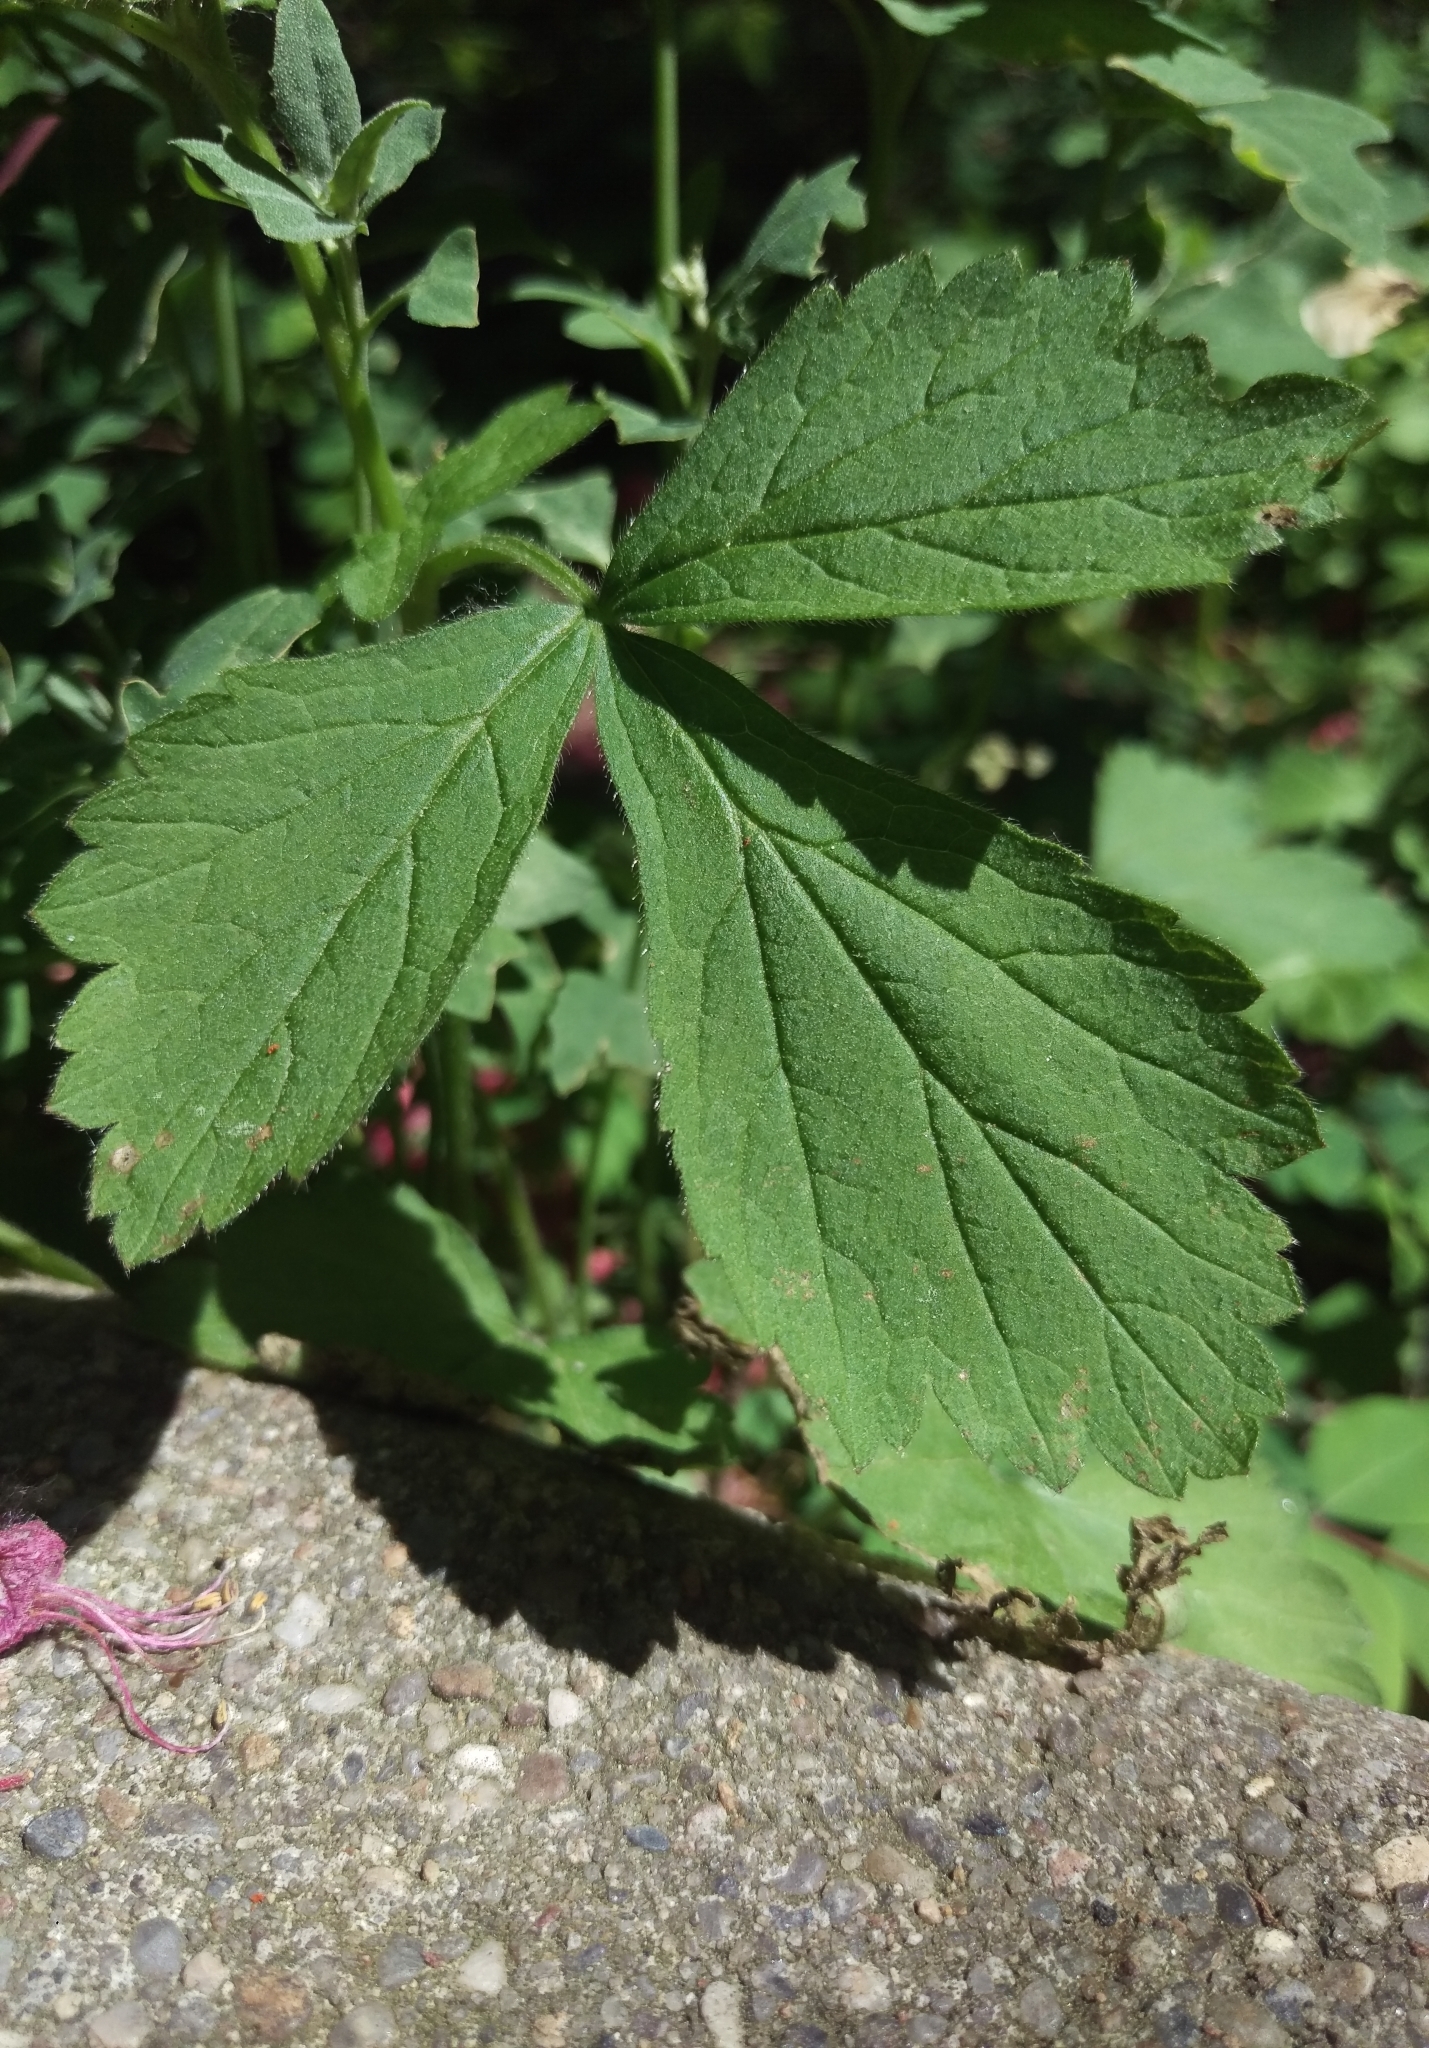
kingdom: Plantae
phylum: Tracheophyta
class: Magnoliopsida
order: Rosales
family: Rosaceae
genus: Geum
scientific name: Geum urbanum
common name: Wood avens
